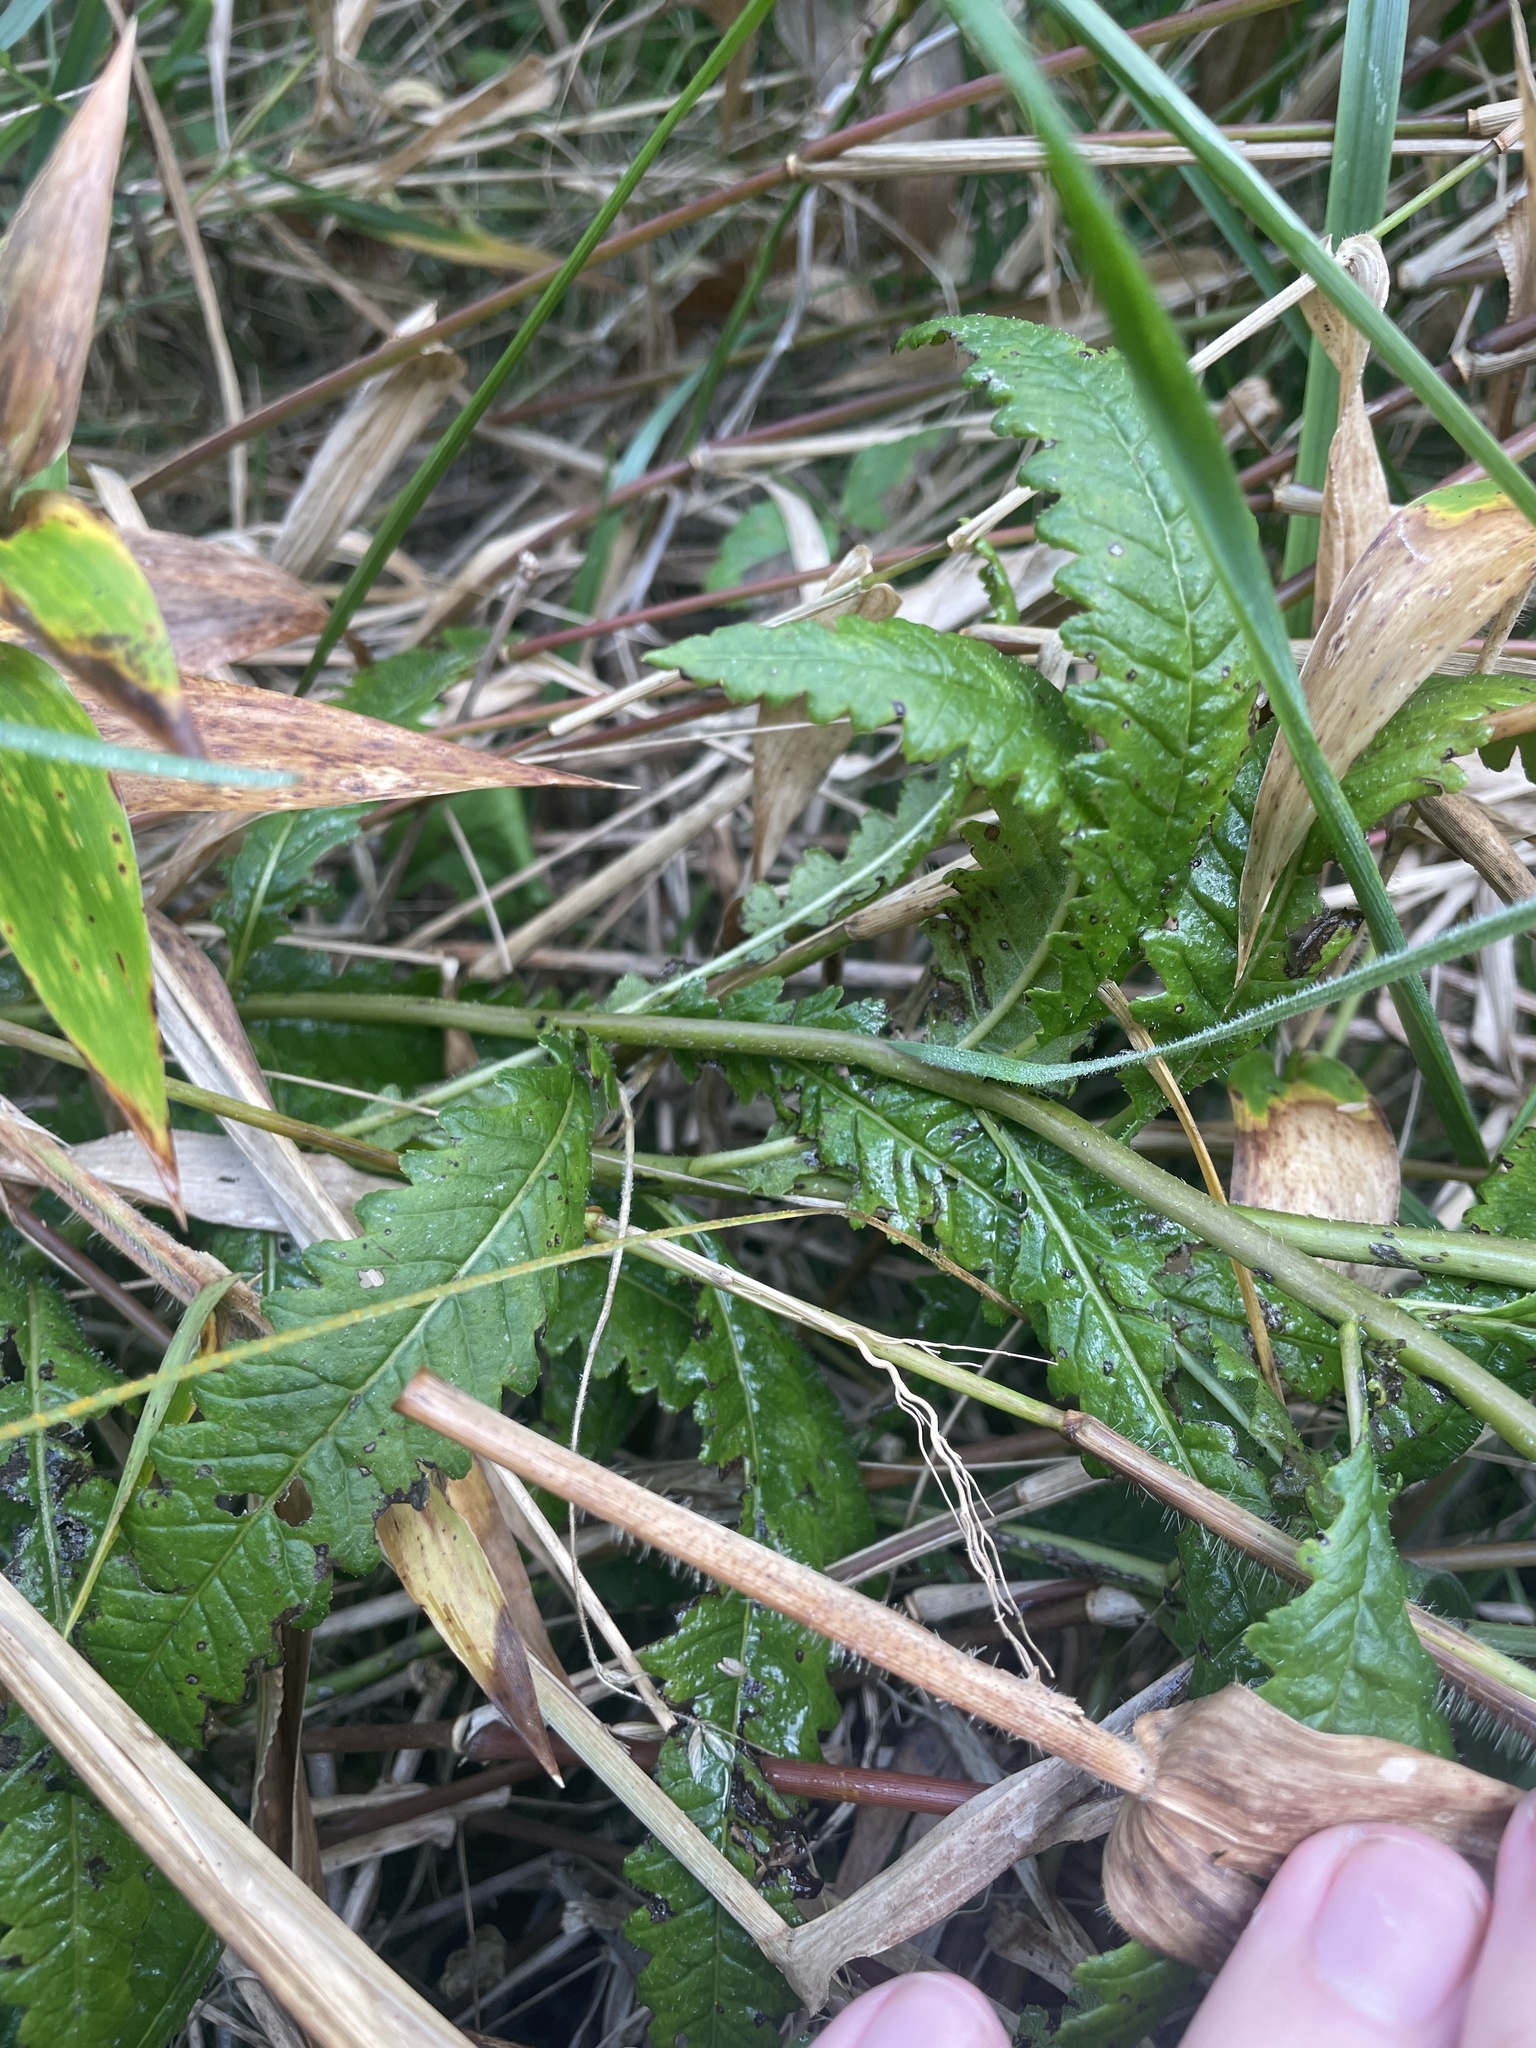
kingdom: Plantae
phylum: Tracheophyta
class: Magnoliopsida
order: Lamiales
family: Orobanchaceae
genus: Pedicularis
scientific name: Pedicularis lanceolata
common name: Swamp lousewort
